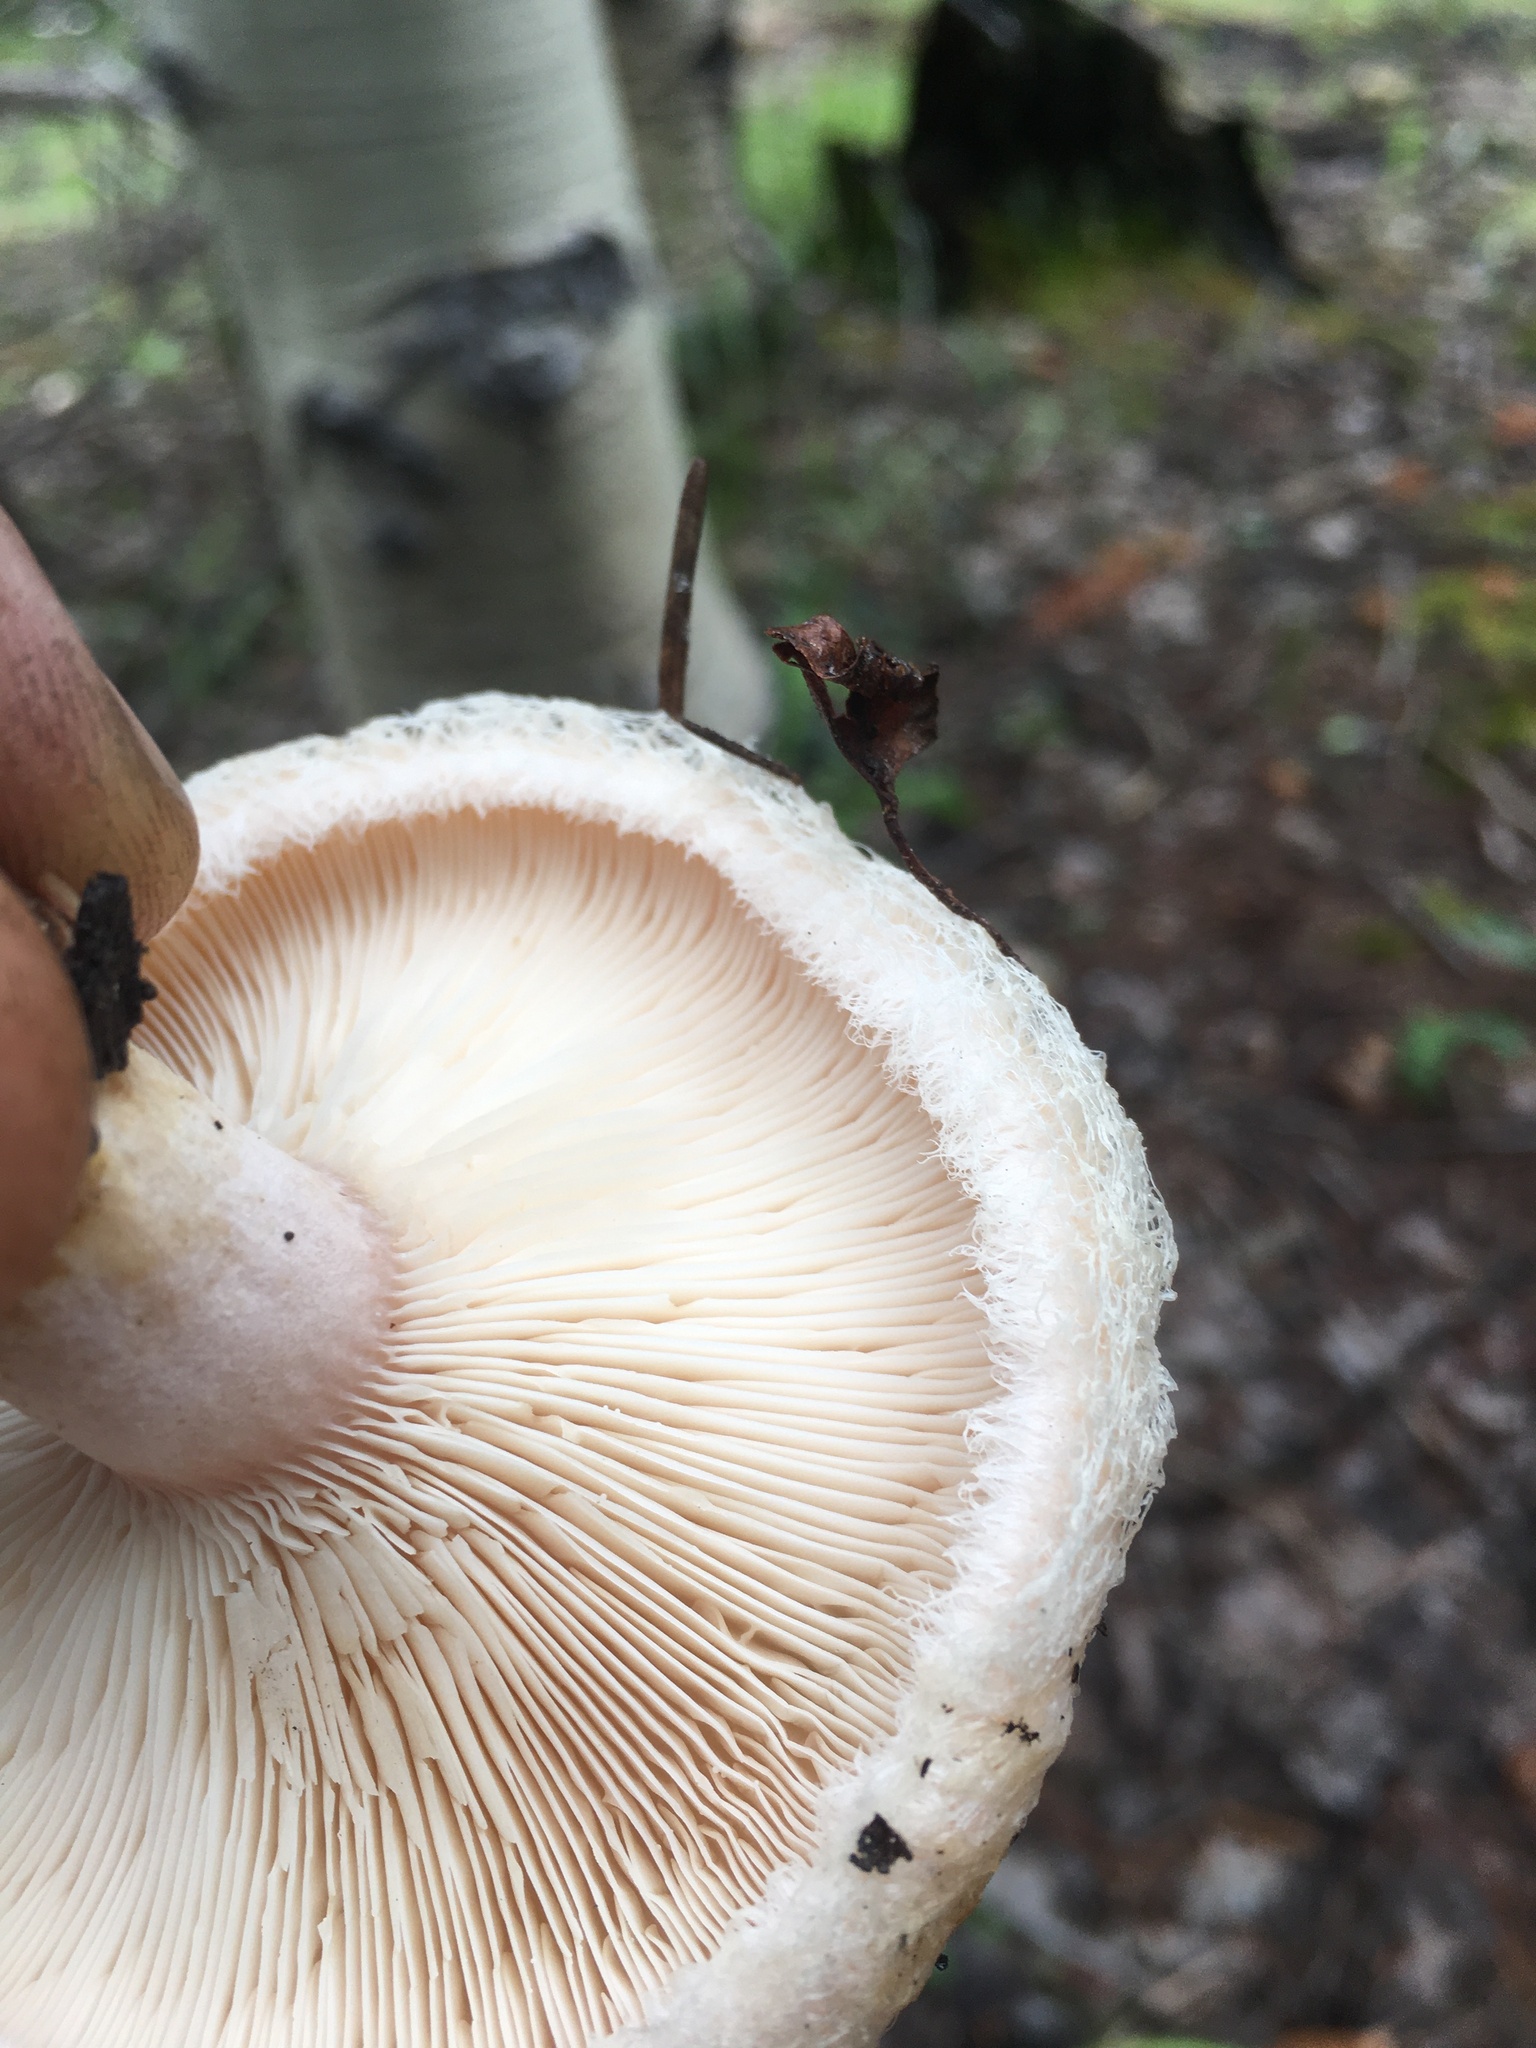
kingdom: Fungi
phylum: Basidiomycota
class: Agaricomycetes
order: Russulales
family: Russulaceae
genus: Lactarius
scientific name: Lactarius pubescens
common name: Bearded milkcap
